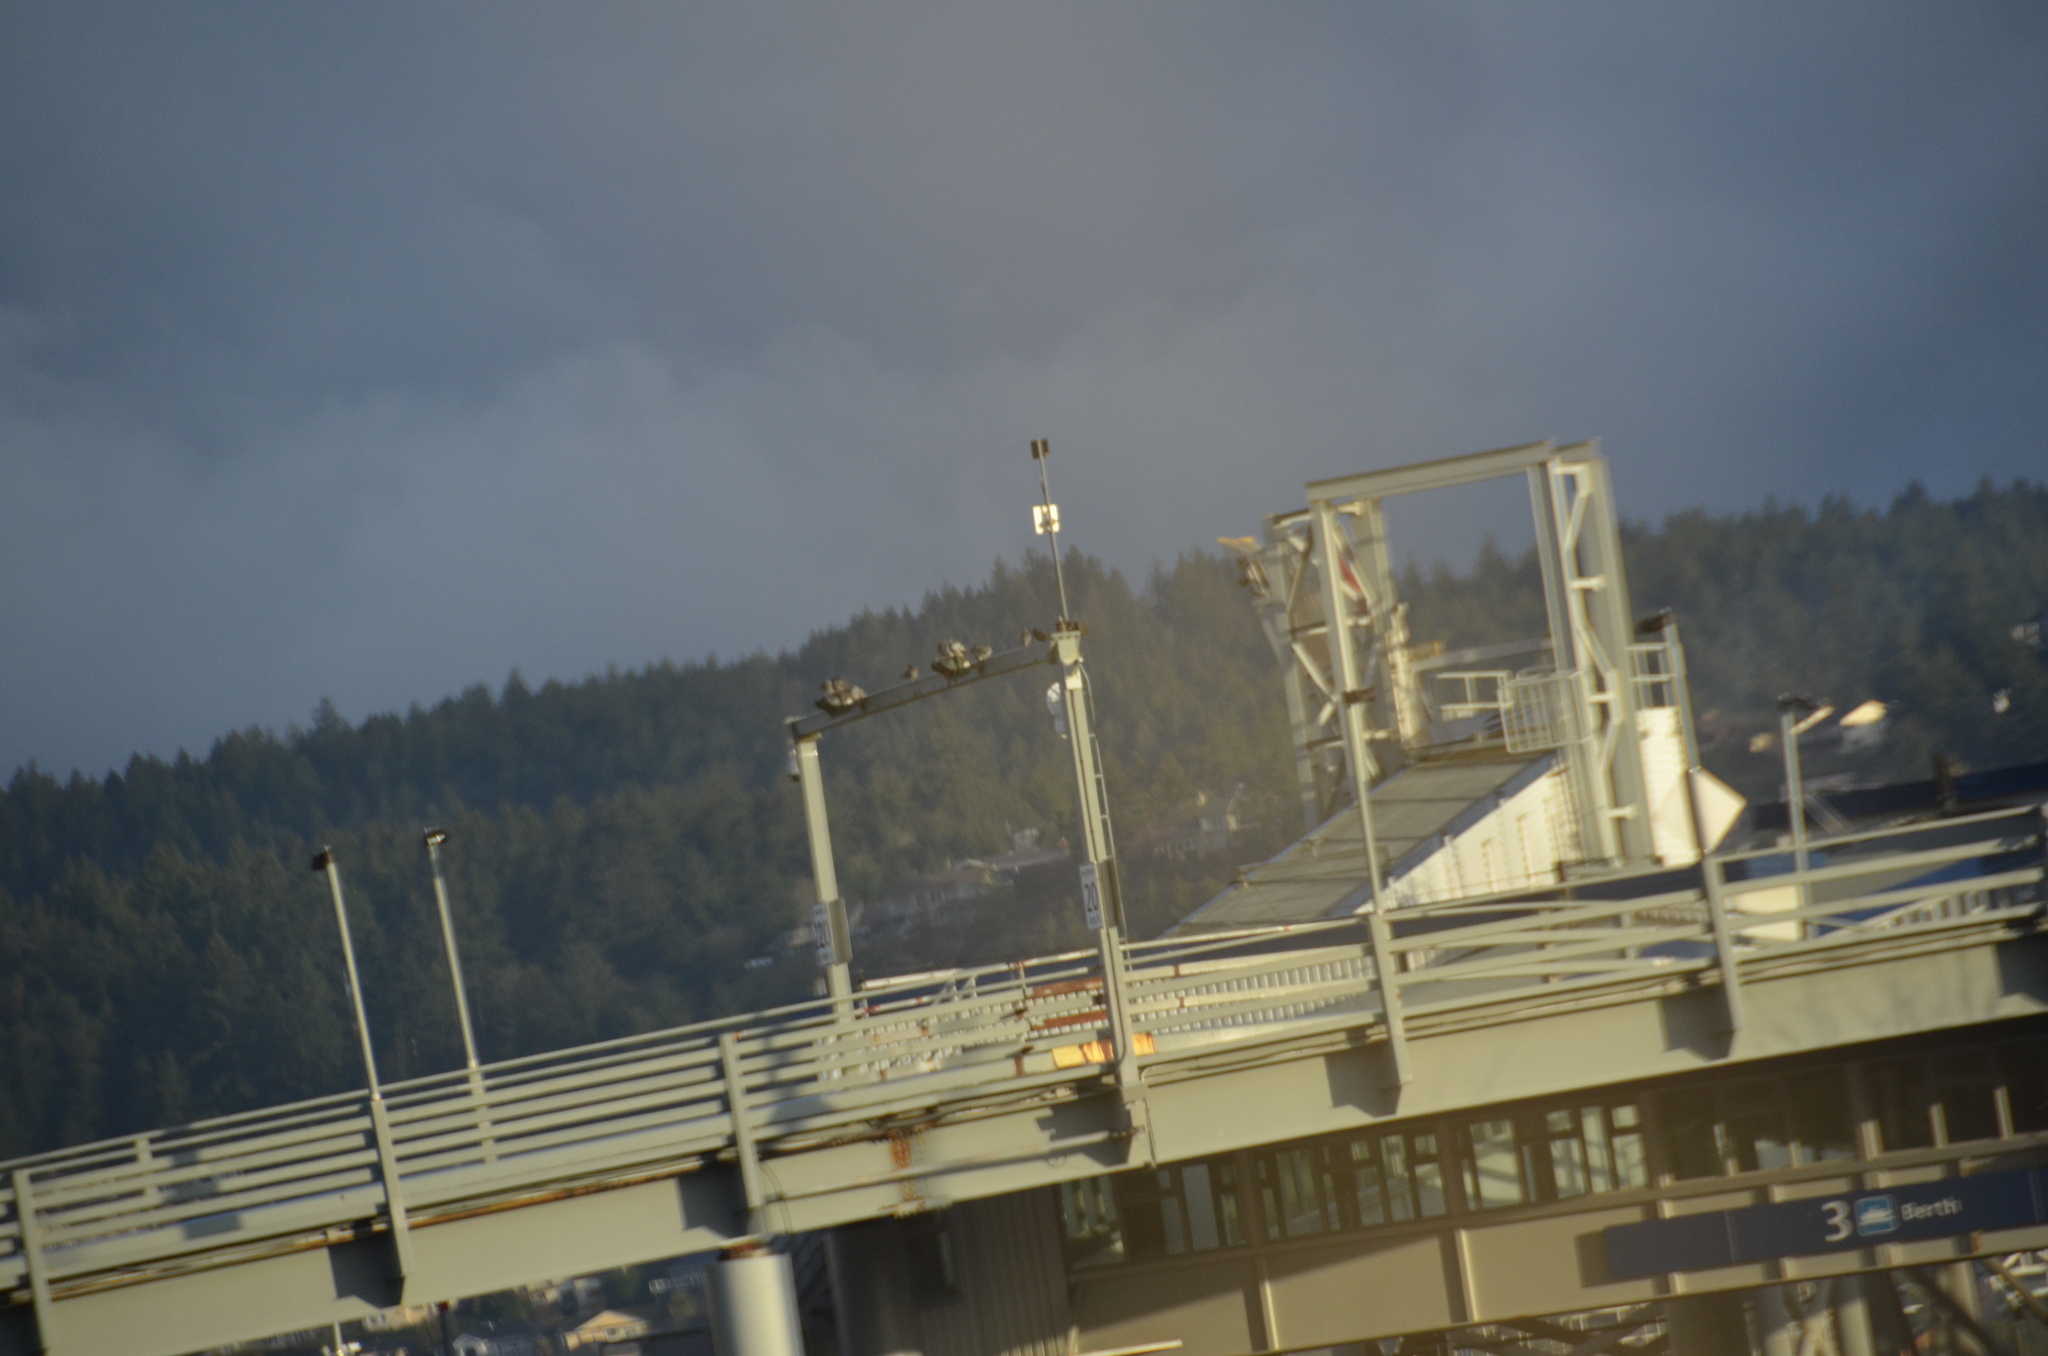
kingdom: Animalia
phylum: Chordata
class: Aves
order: Columbiformes
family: Columbidae
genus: Columba
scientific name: Columba livia
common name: Rock pigeon
